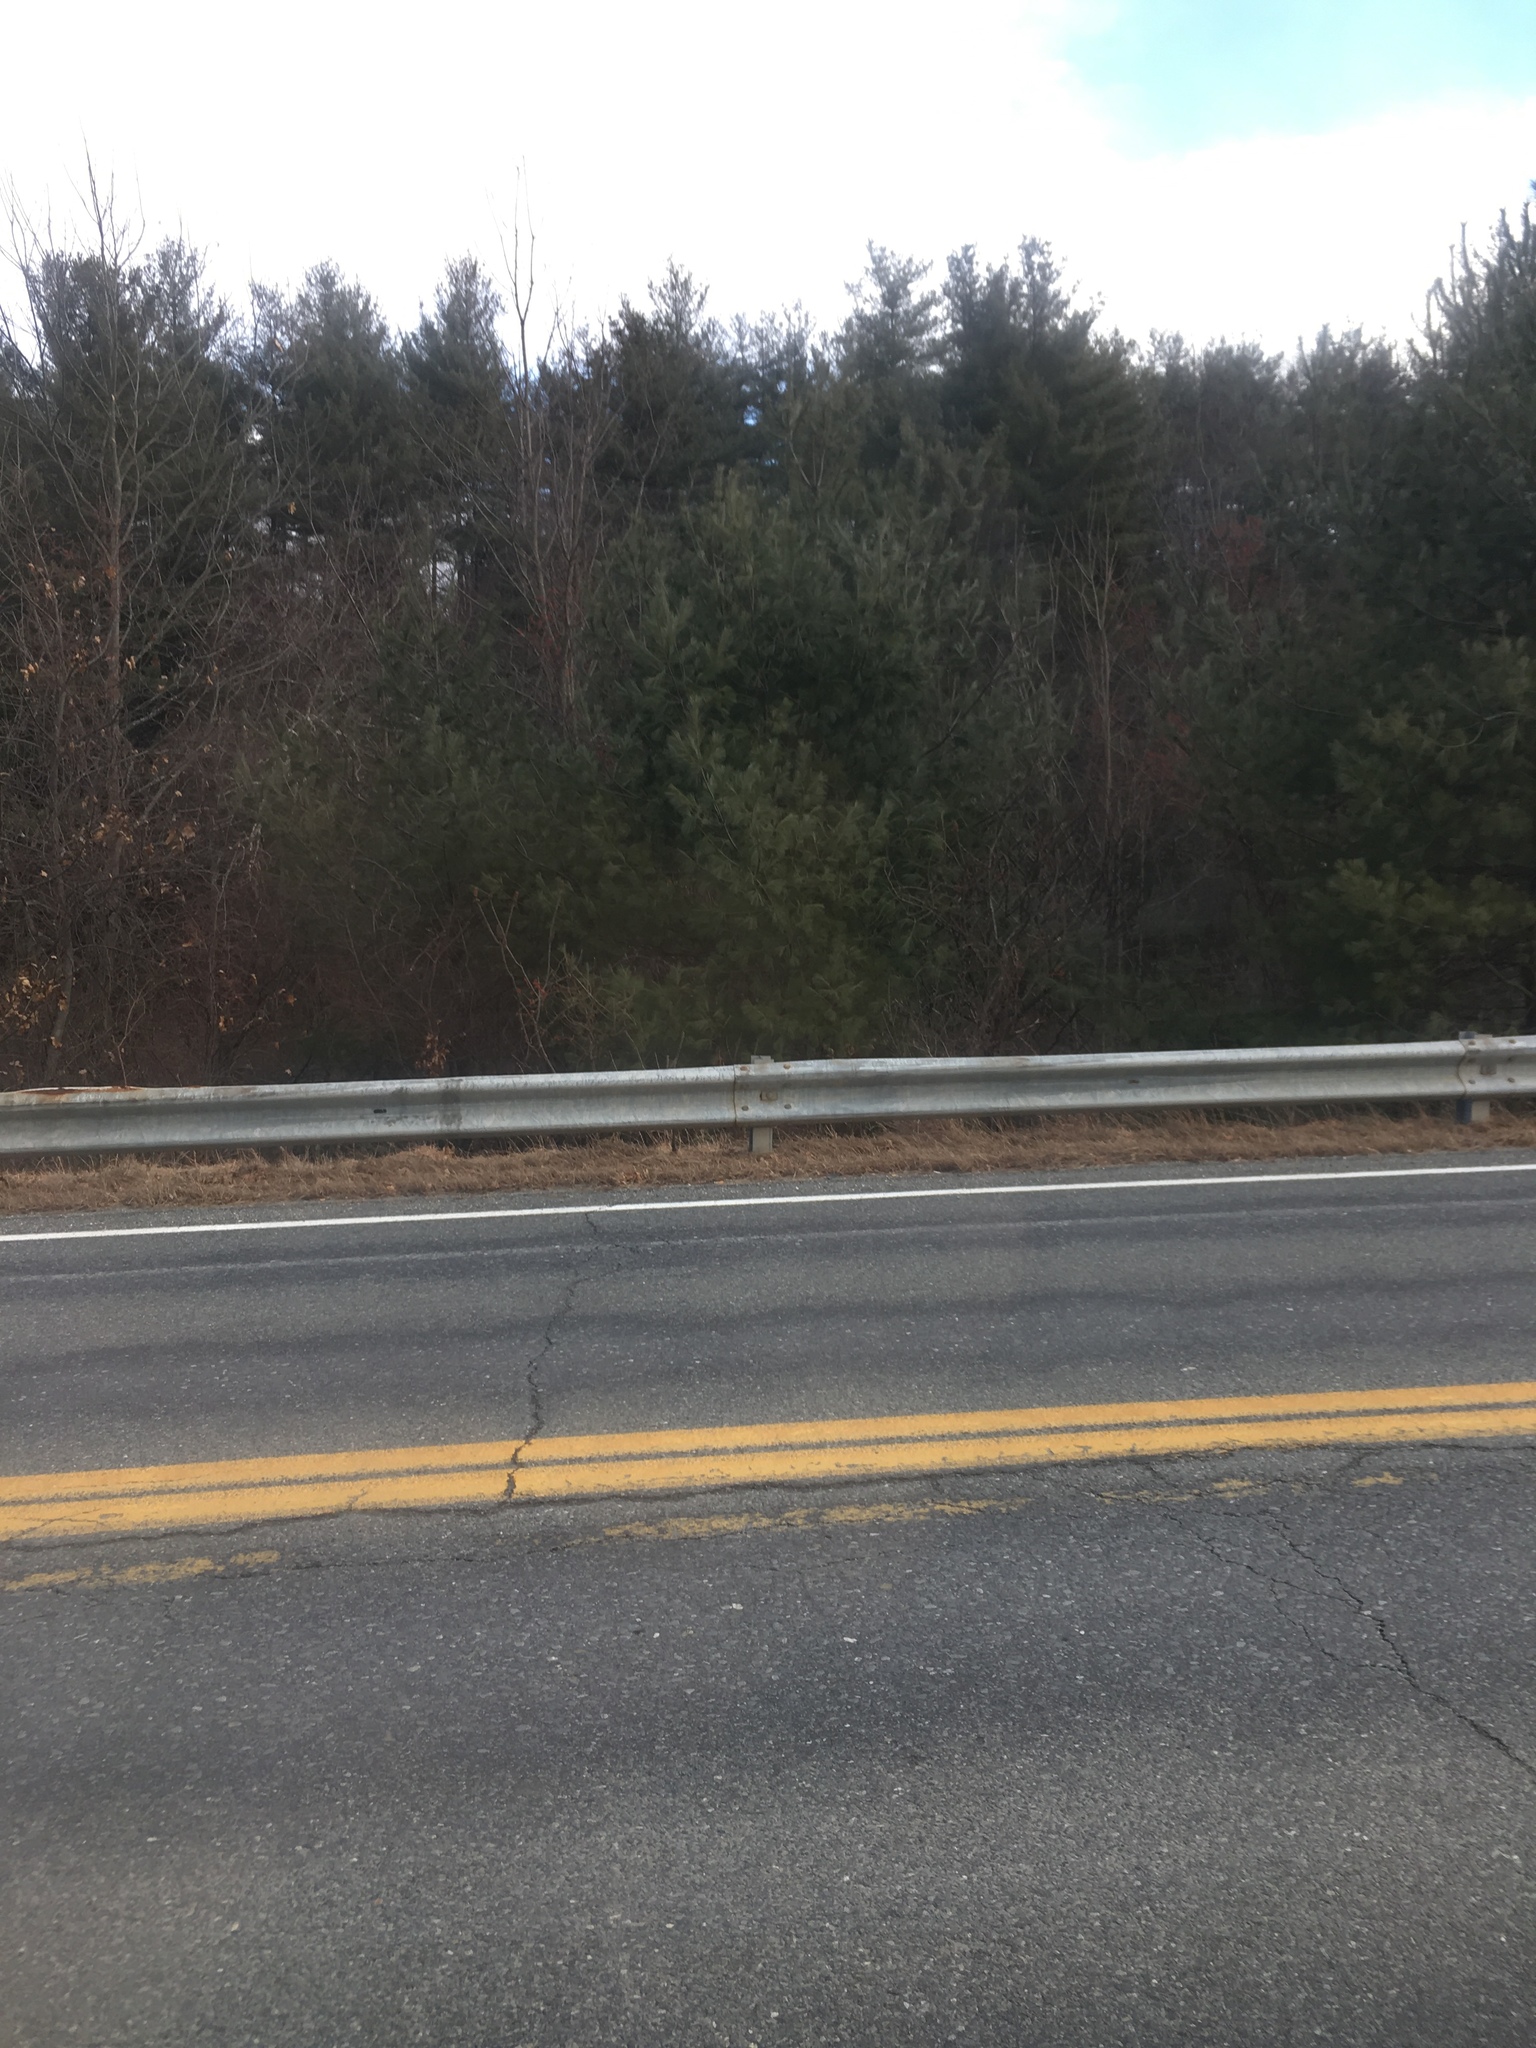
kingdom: Plantae
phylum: Tracheophyta
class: Pinopsida
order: Pinales
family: Pinaceae
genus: Pinus
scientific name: Pinus strobus
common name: Weymouth pine
